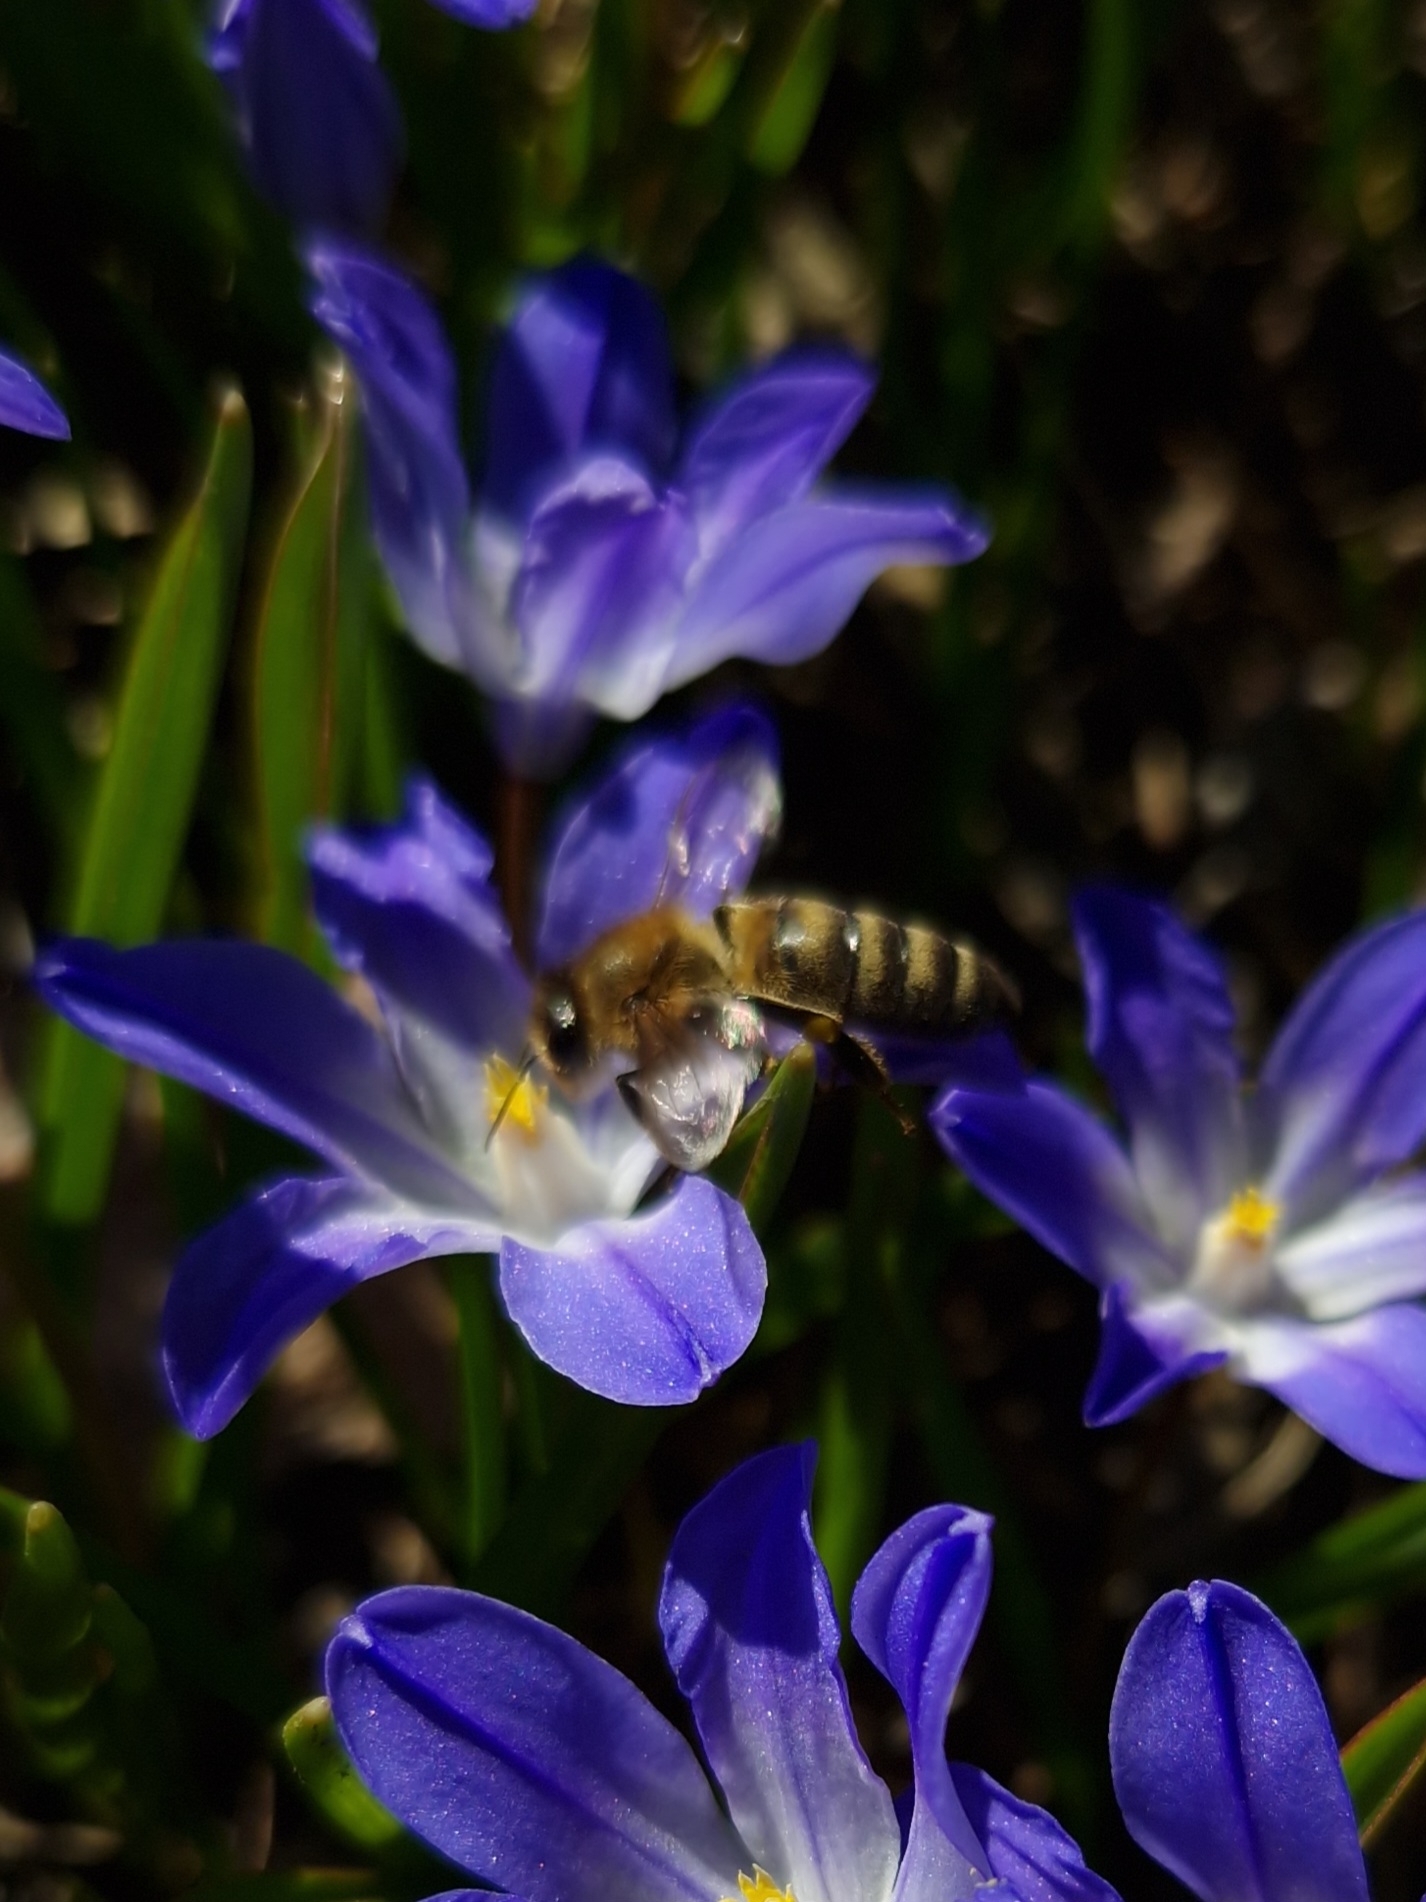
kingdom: Animalia
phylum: Arthropoda
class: Insecta
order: Hymenoptera
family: Apidae
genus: Apis
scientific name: Apis mellifera
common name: Honey bee
